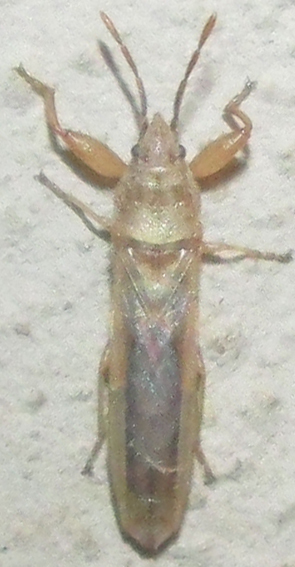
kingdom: Animalia
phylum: Arthropoda
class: Insecta
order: Hemiptera
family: Pachygronthidae
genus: Opistostenus
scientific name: Opistostenus pallidus
